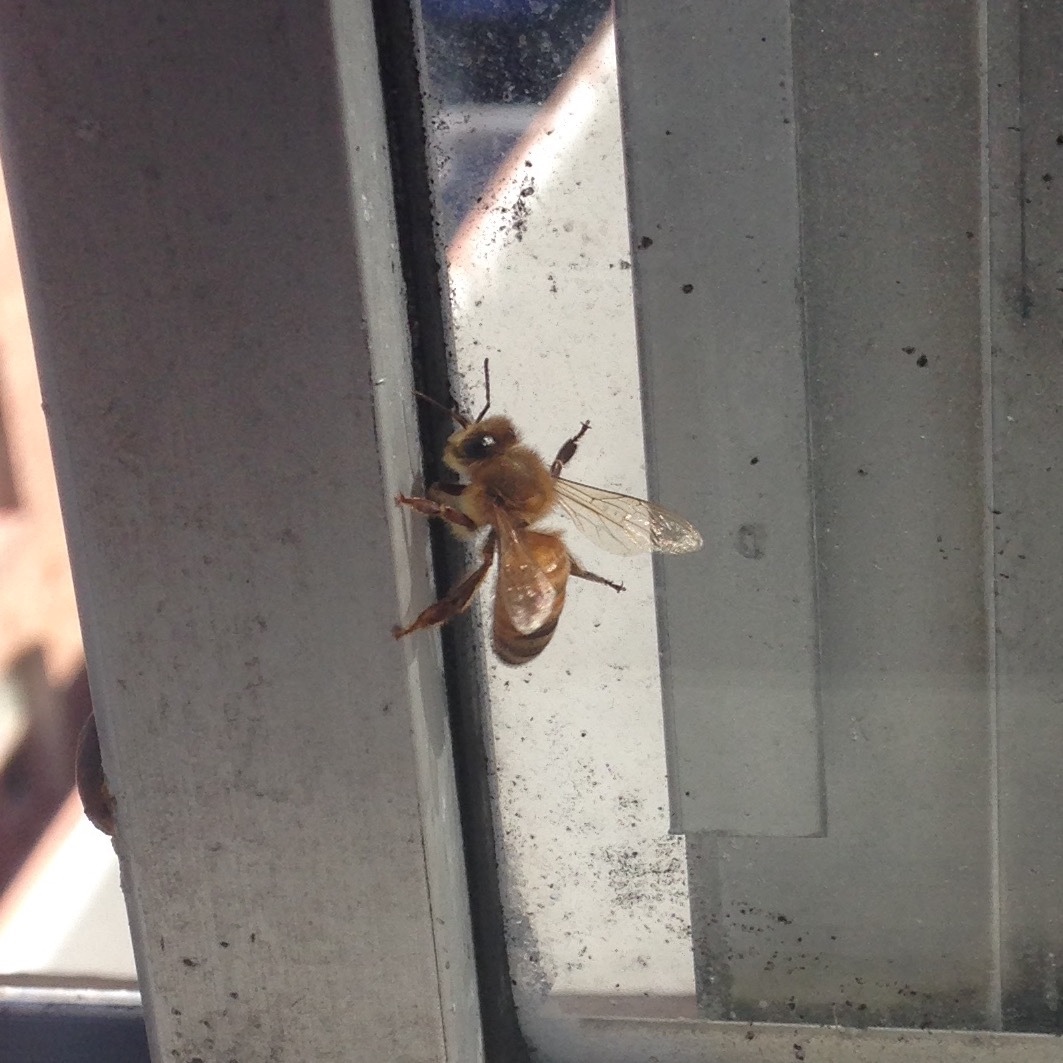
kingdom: Animalia
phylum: Arthropoda
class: Insecta
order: Hymenoptera
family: Apidae
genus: Apis
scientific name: Apis mellifera
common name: Honey bee
